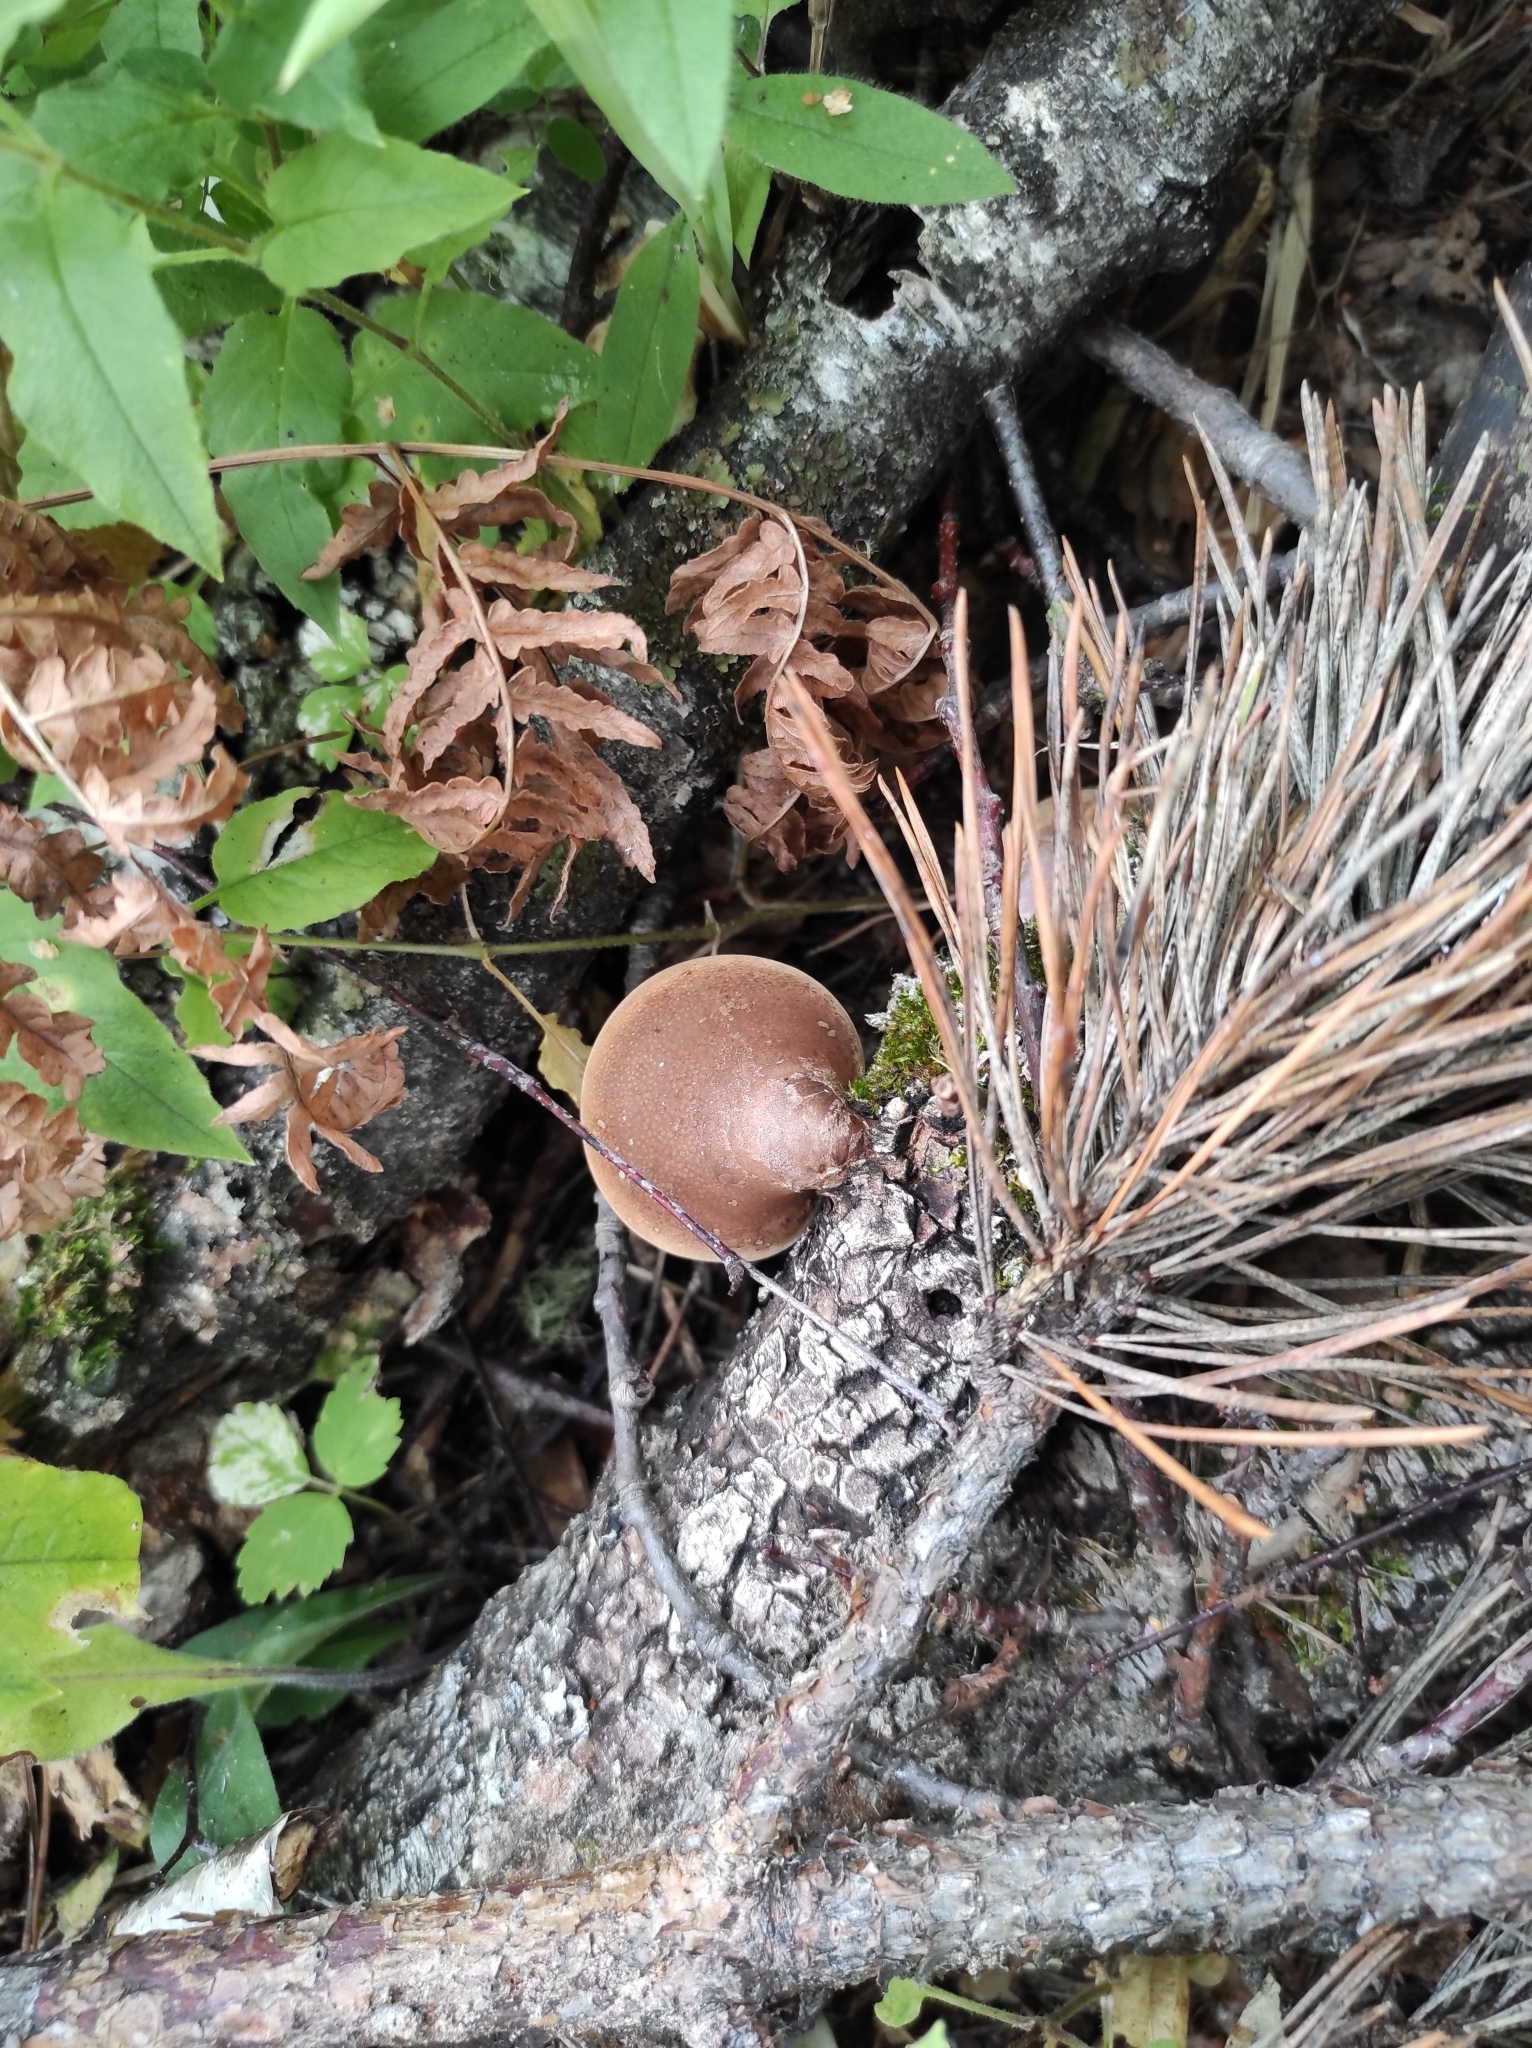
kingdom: Fungi
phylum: Basidiomycota
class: Agaricomycetes
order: Polyporales
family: Fomitopsidaceae
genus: Fomitopsis
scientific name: Fomitopsis betulina
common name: Birch polypore
